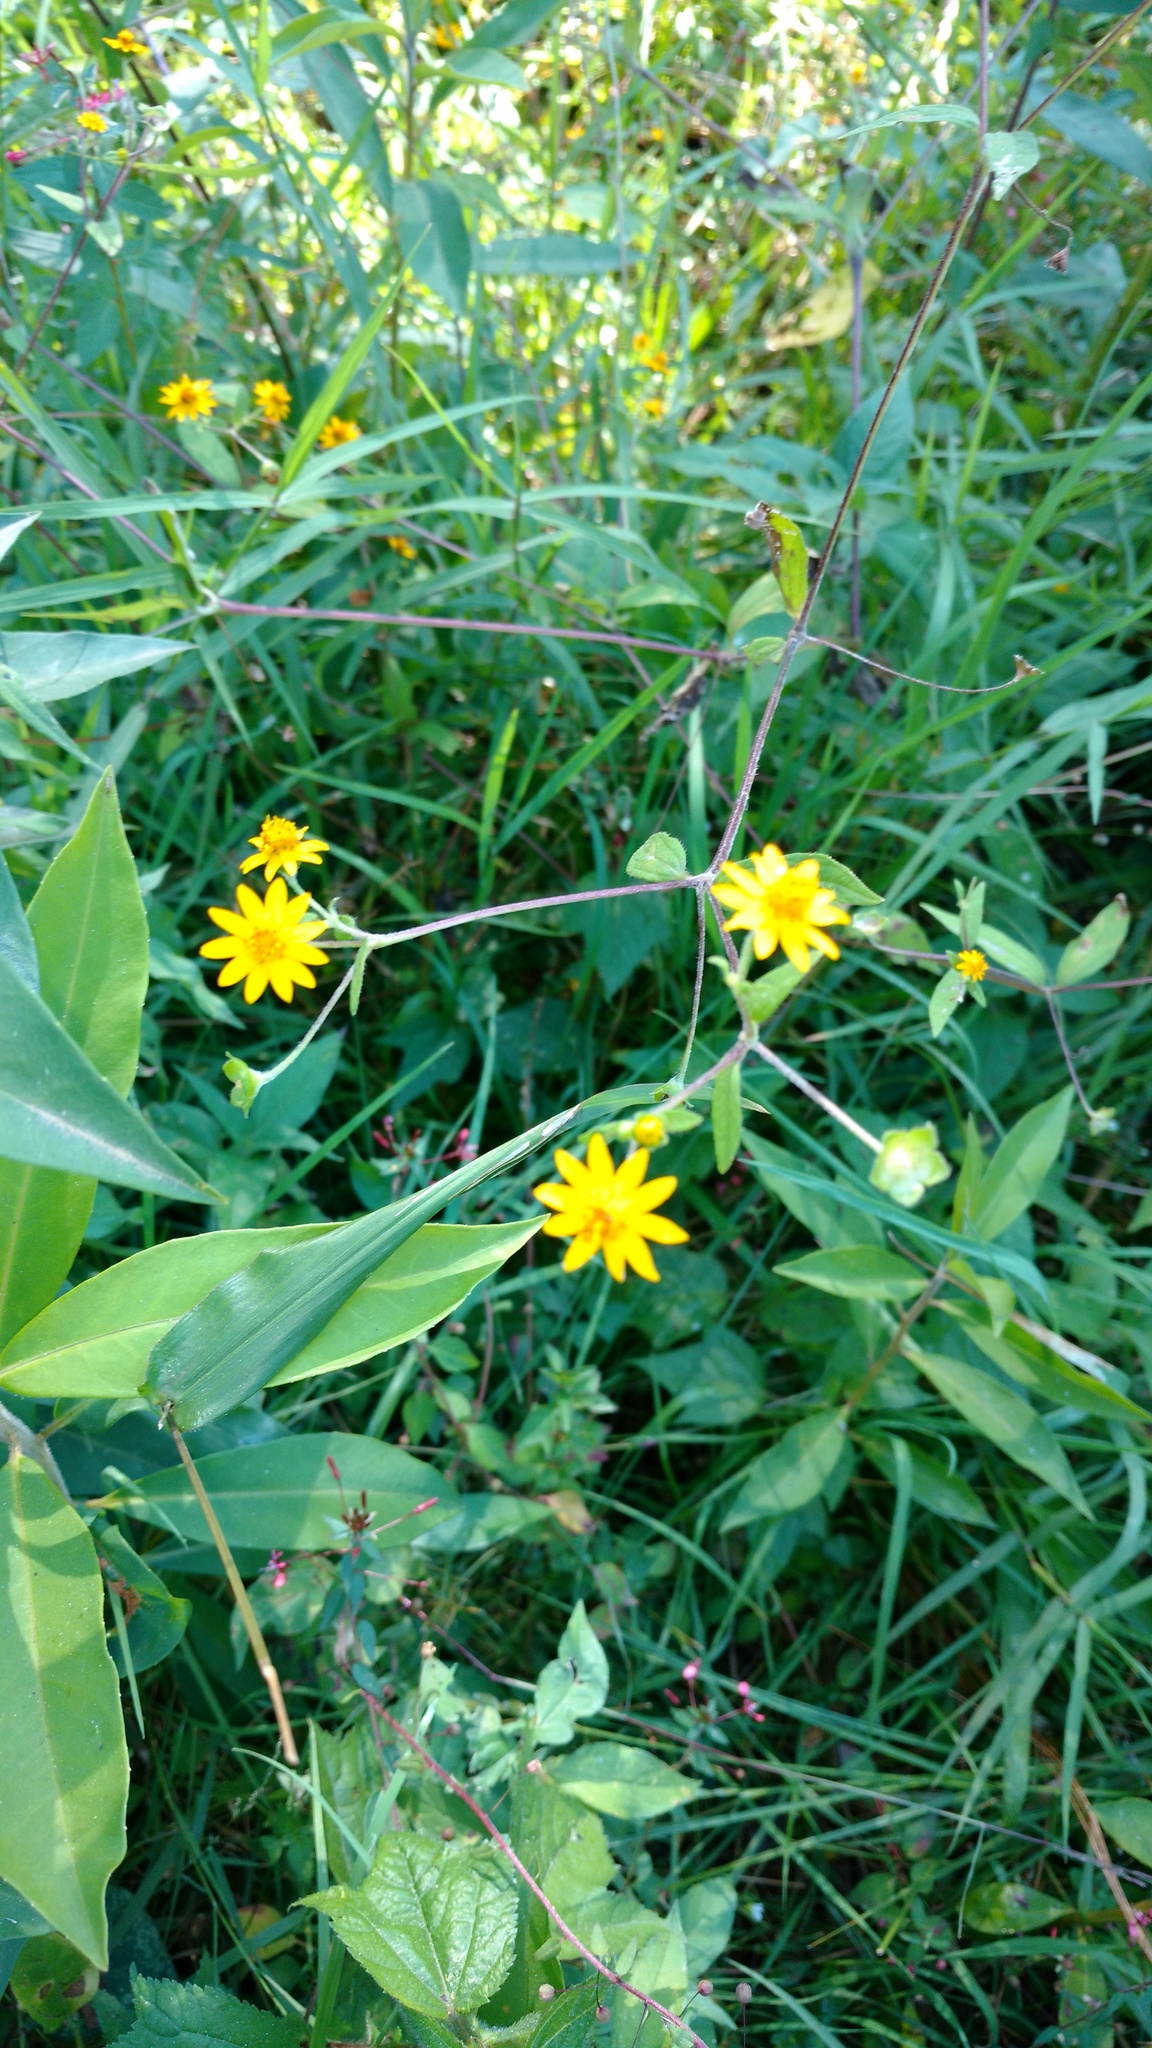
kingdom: Plantae
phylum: Tracheophyta
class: Magnoliopsida
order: Asterales
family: Asteraceae
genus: Melampodium
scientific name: Melampodium divaricatum
